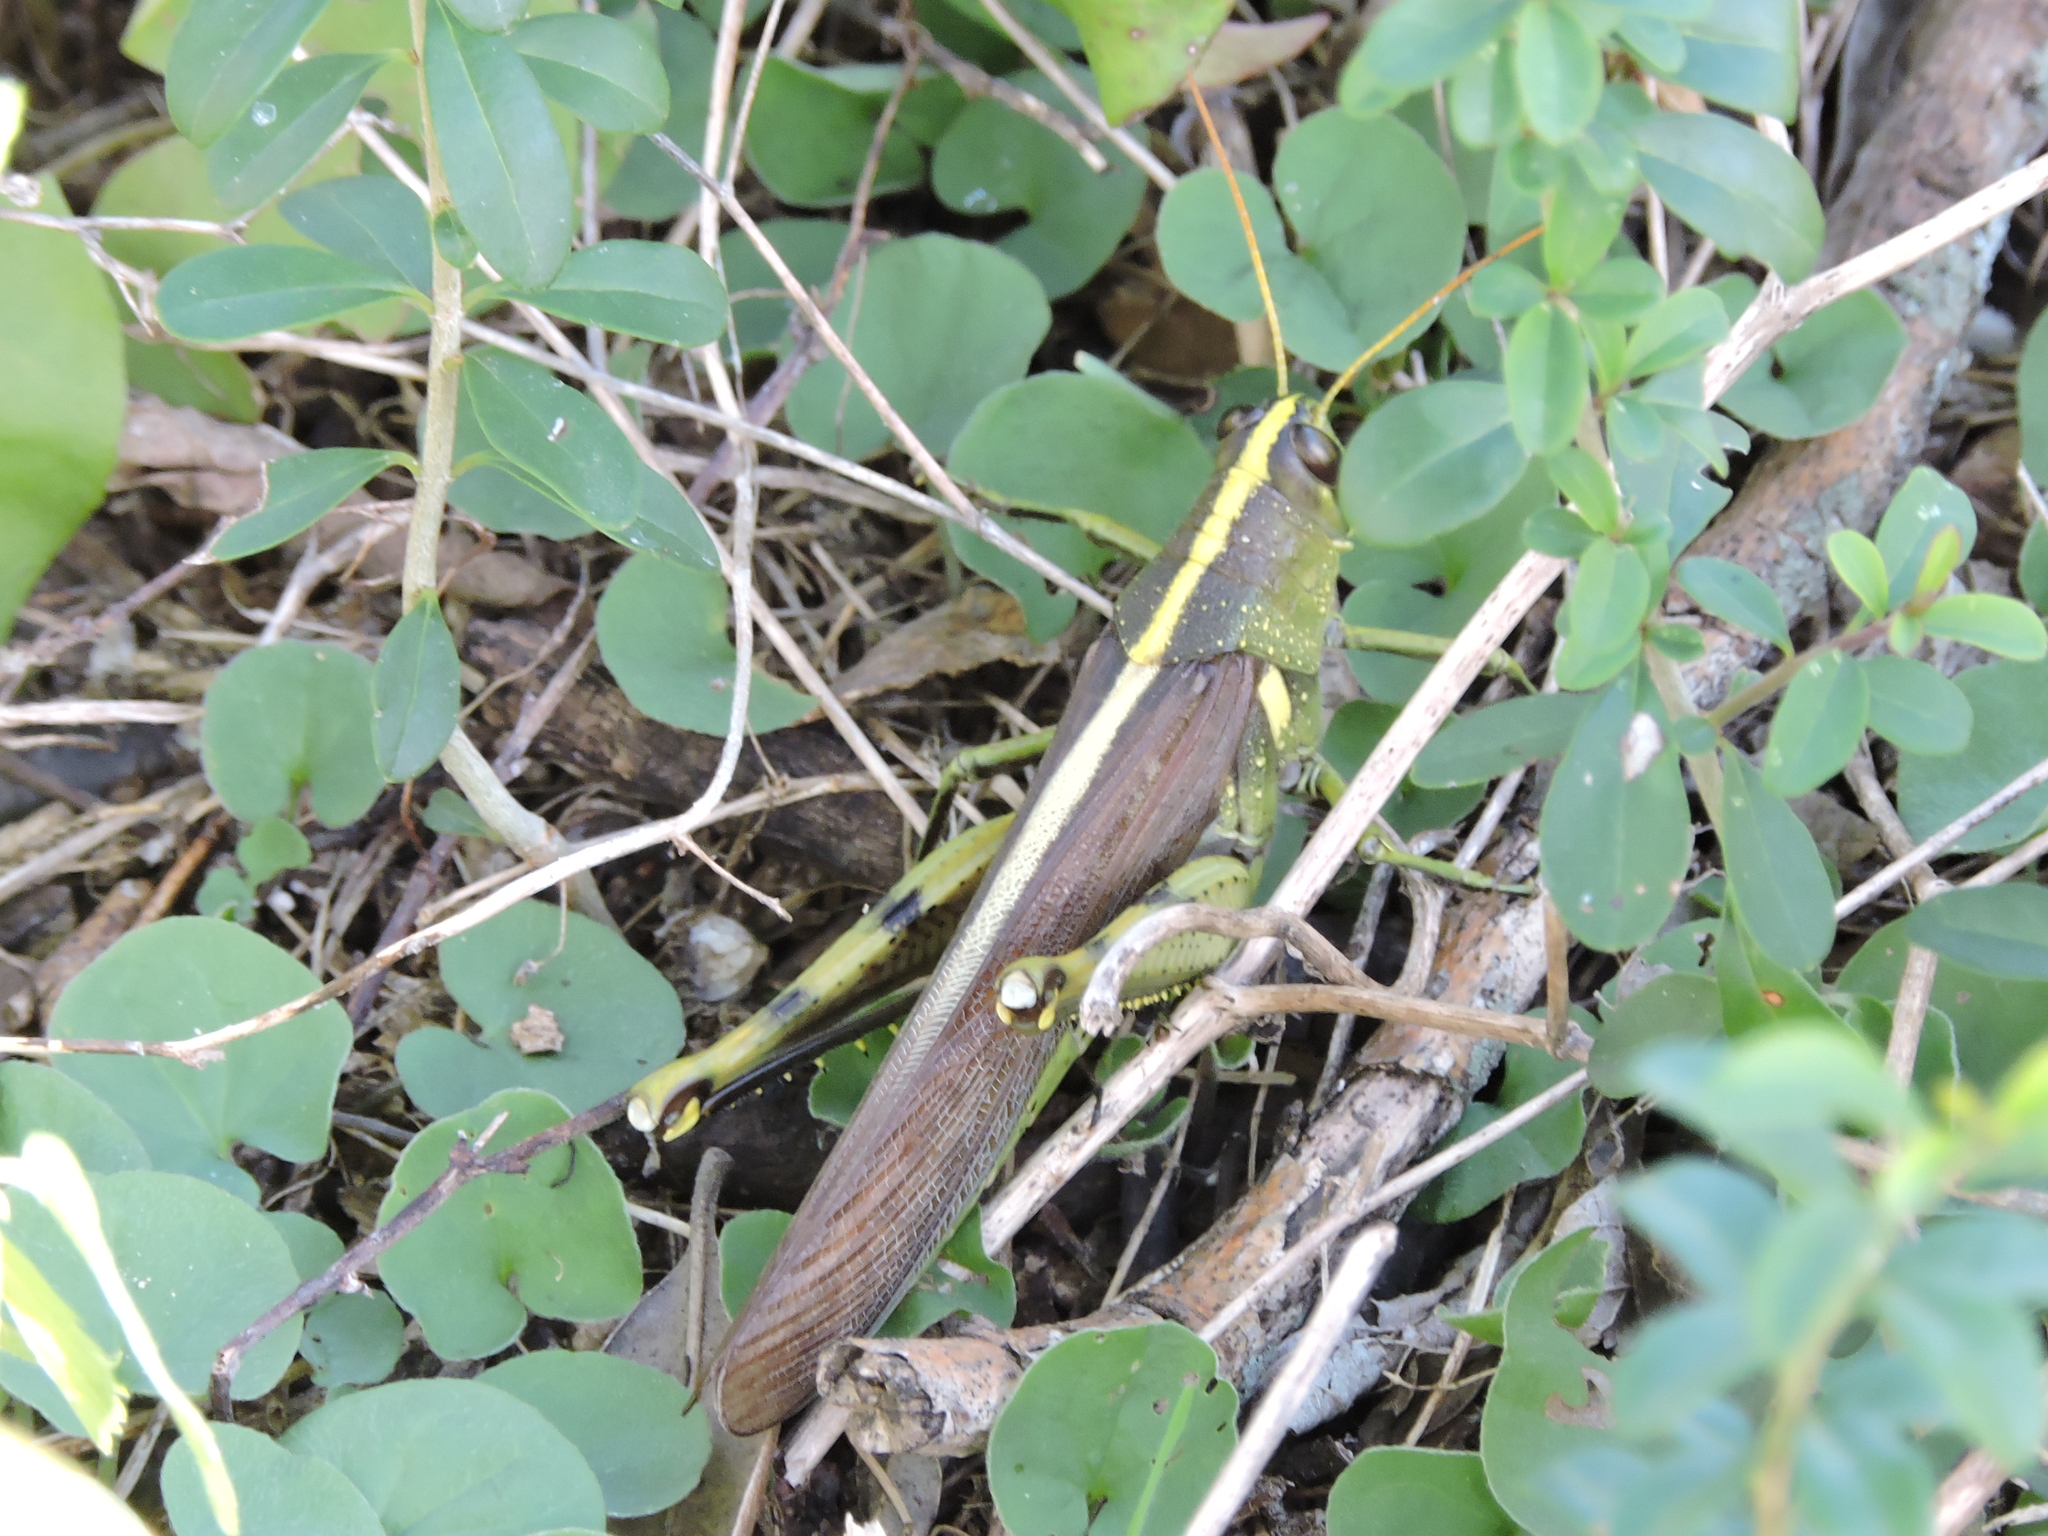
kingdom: Animalia
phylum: Arthropoda
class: Insecta
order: Orthoptera
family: Acrididae
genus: Schistocerca
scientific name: Schistocerca obscura
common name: Obscure bird grasshopper
